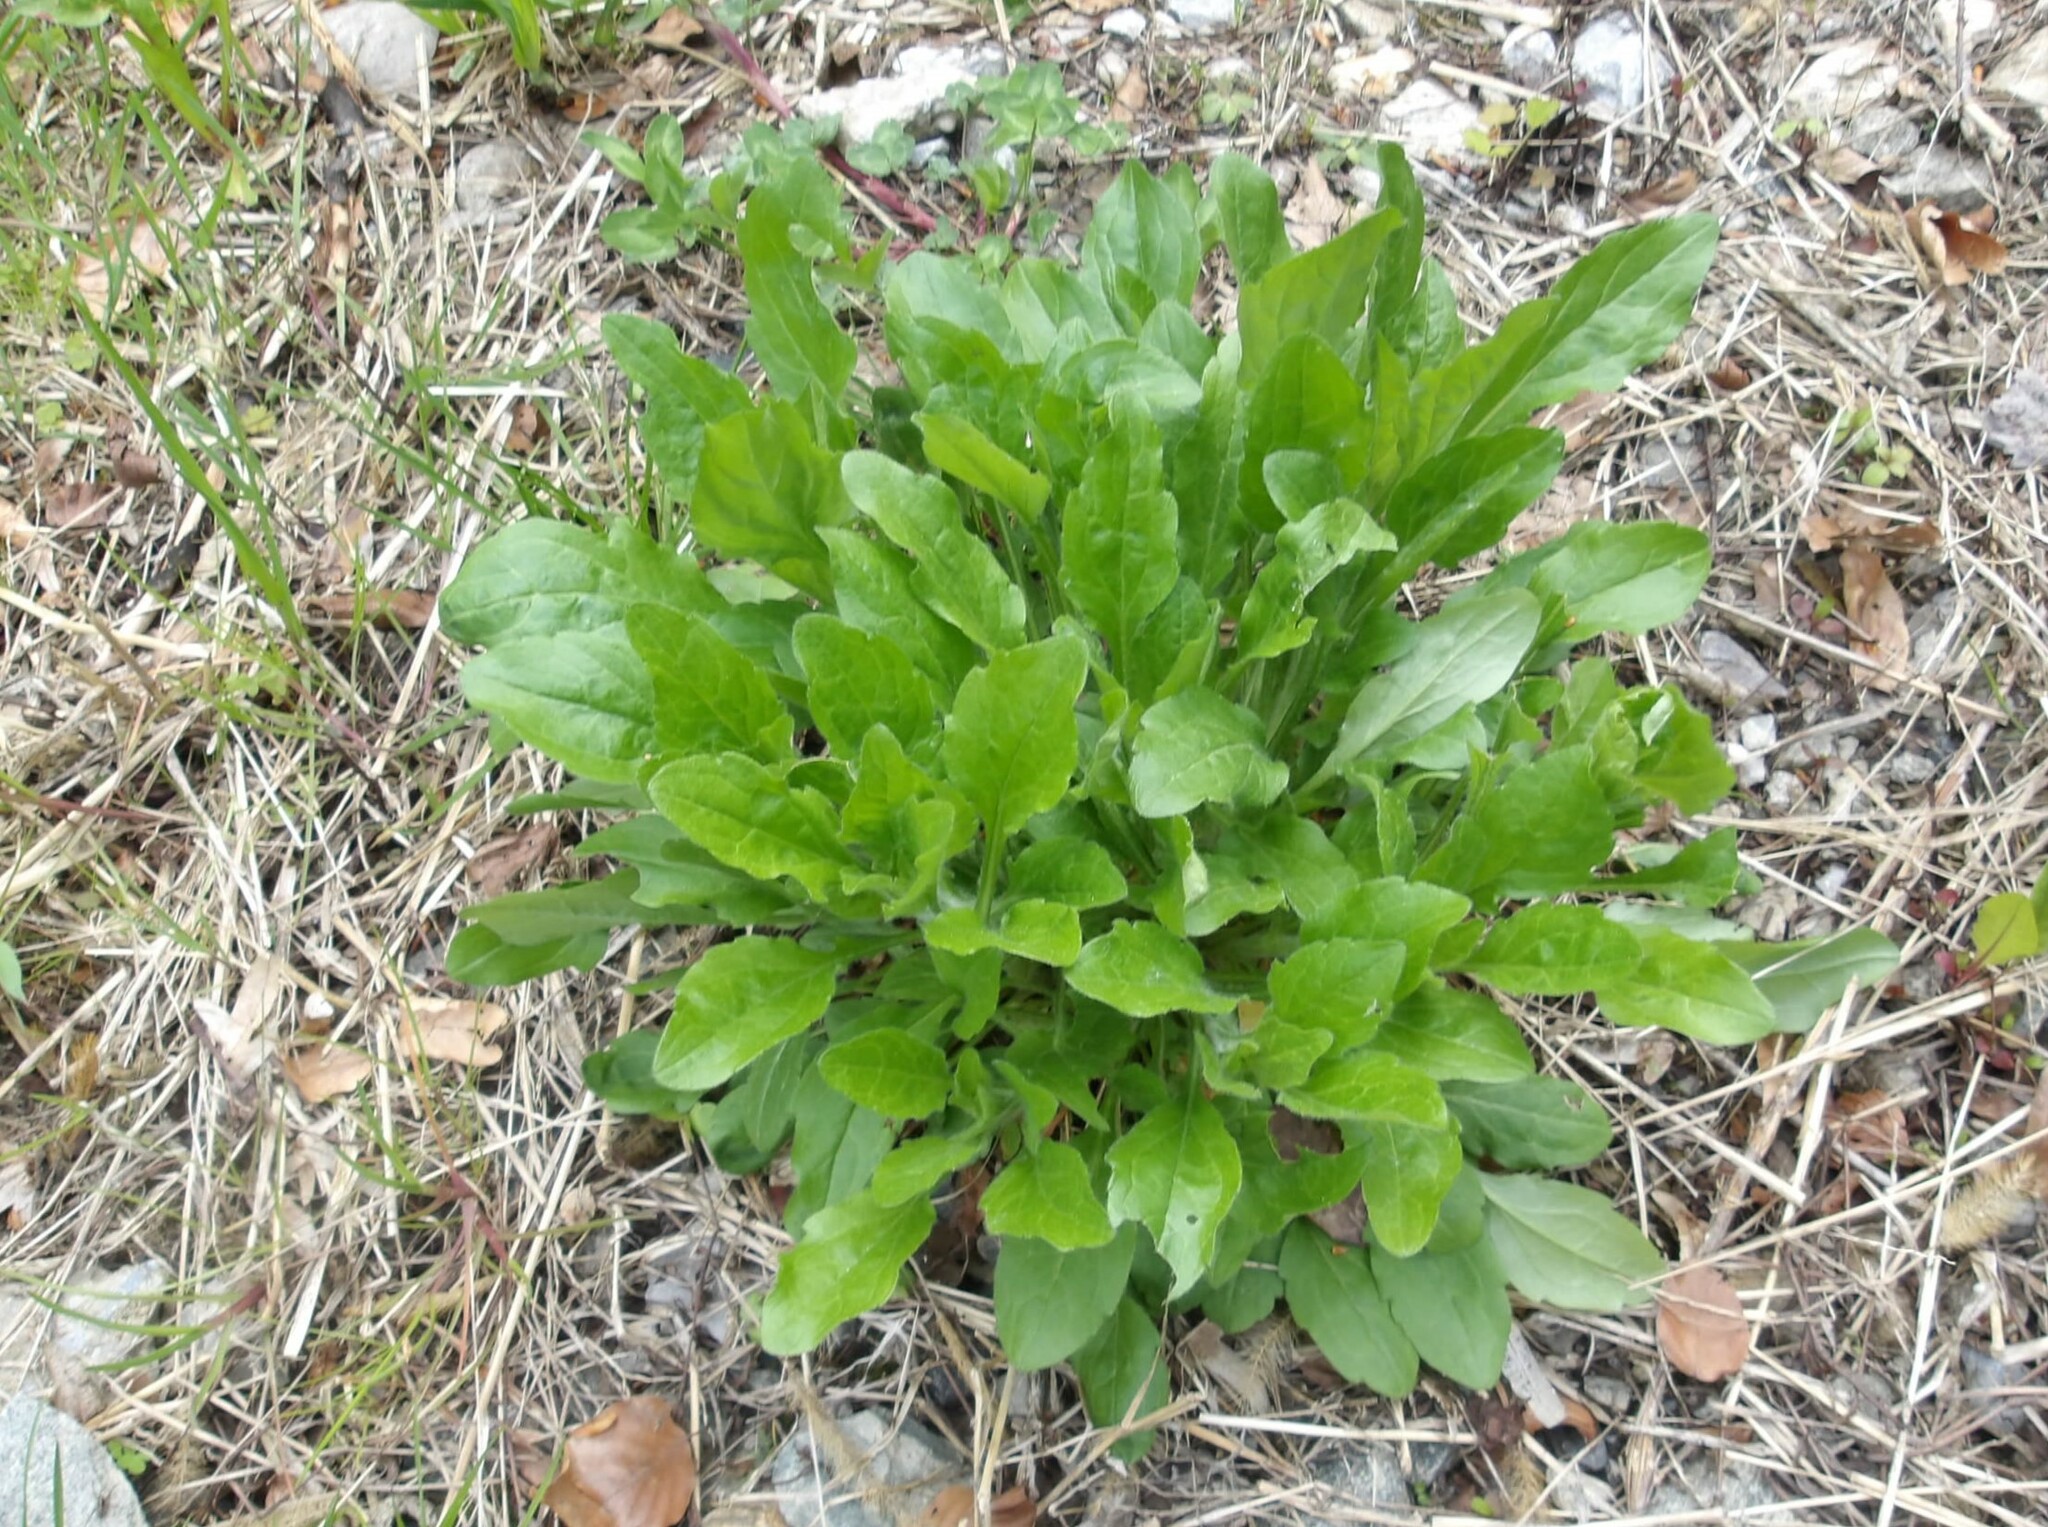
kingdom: Plantae
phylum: Tracheophyta
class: Magnoliopsida
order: Asterales
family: Asteraceae
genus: Erigeron
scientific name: Erigeron annuus
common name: Tall fleabane
